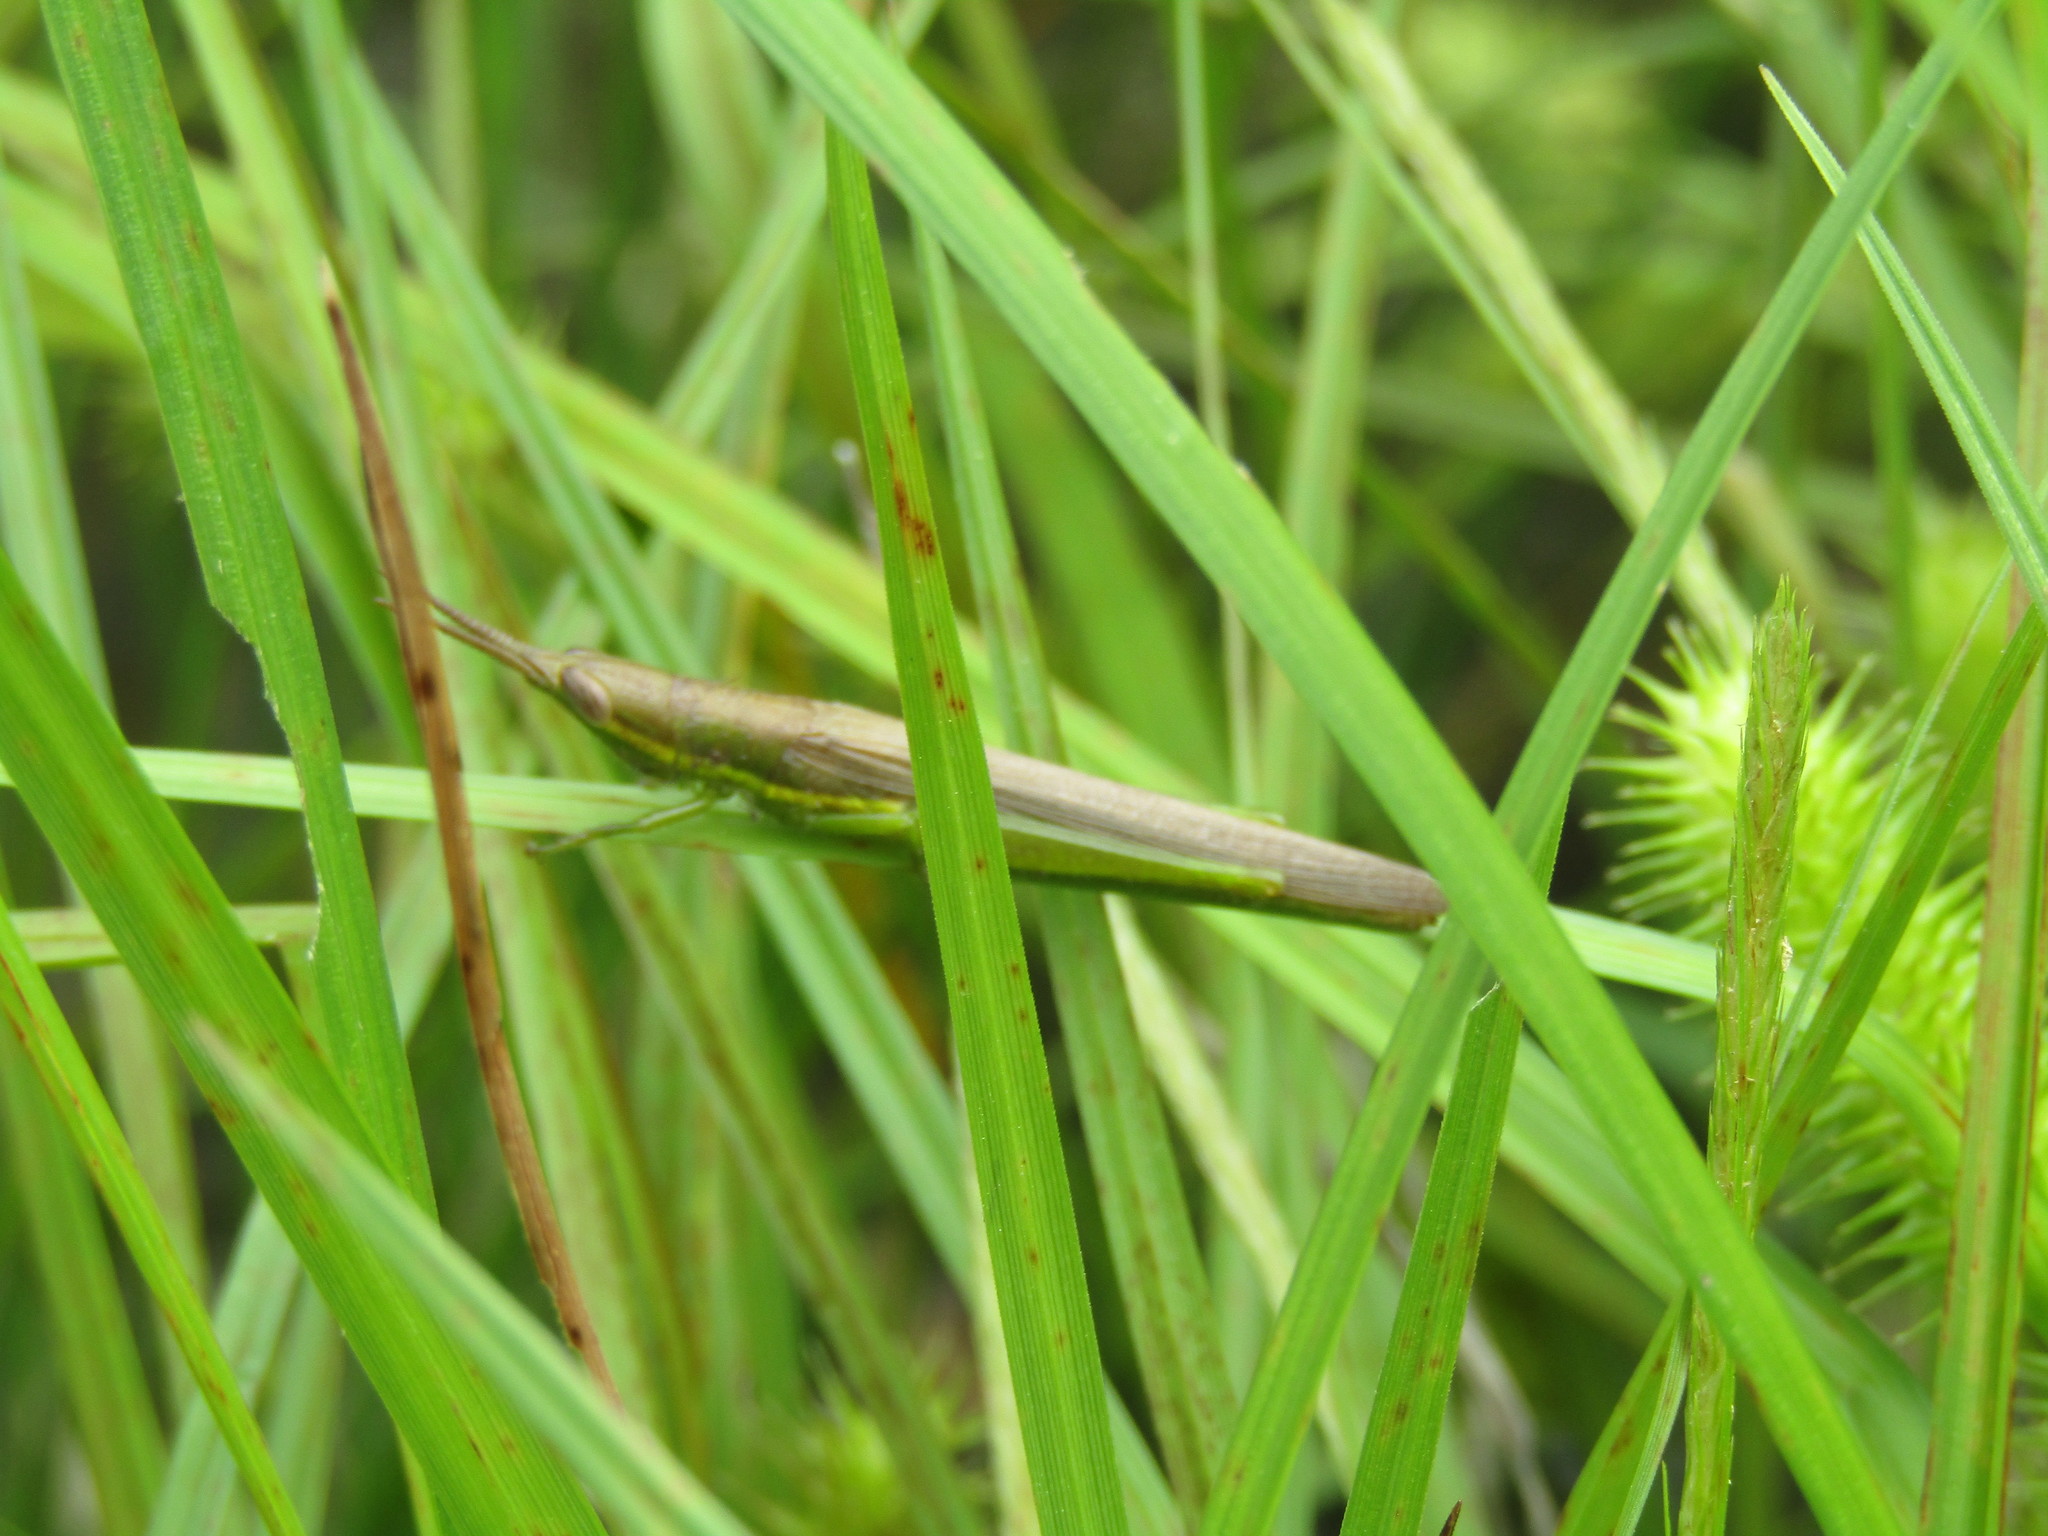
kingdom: Animalia
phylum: Arthropoda
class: Insecta
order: Orthoptera
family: Acrididae
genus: Leptysma
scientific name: Leptysma marginicollis
